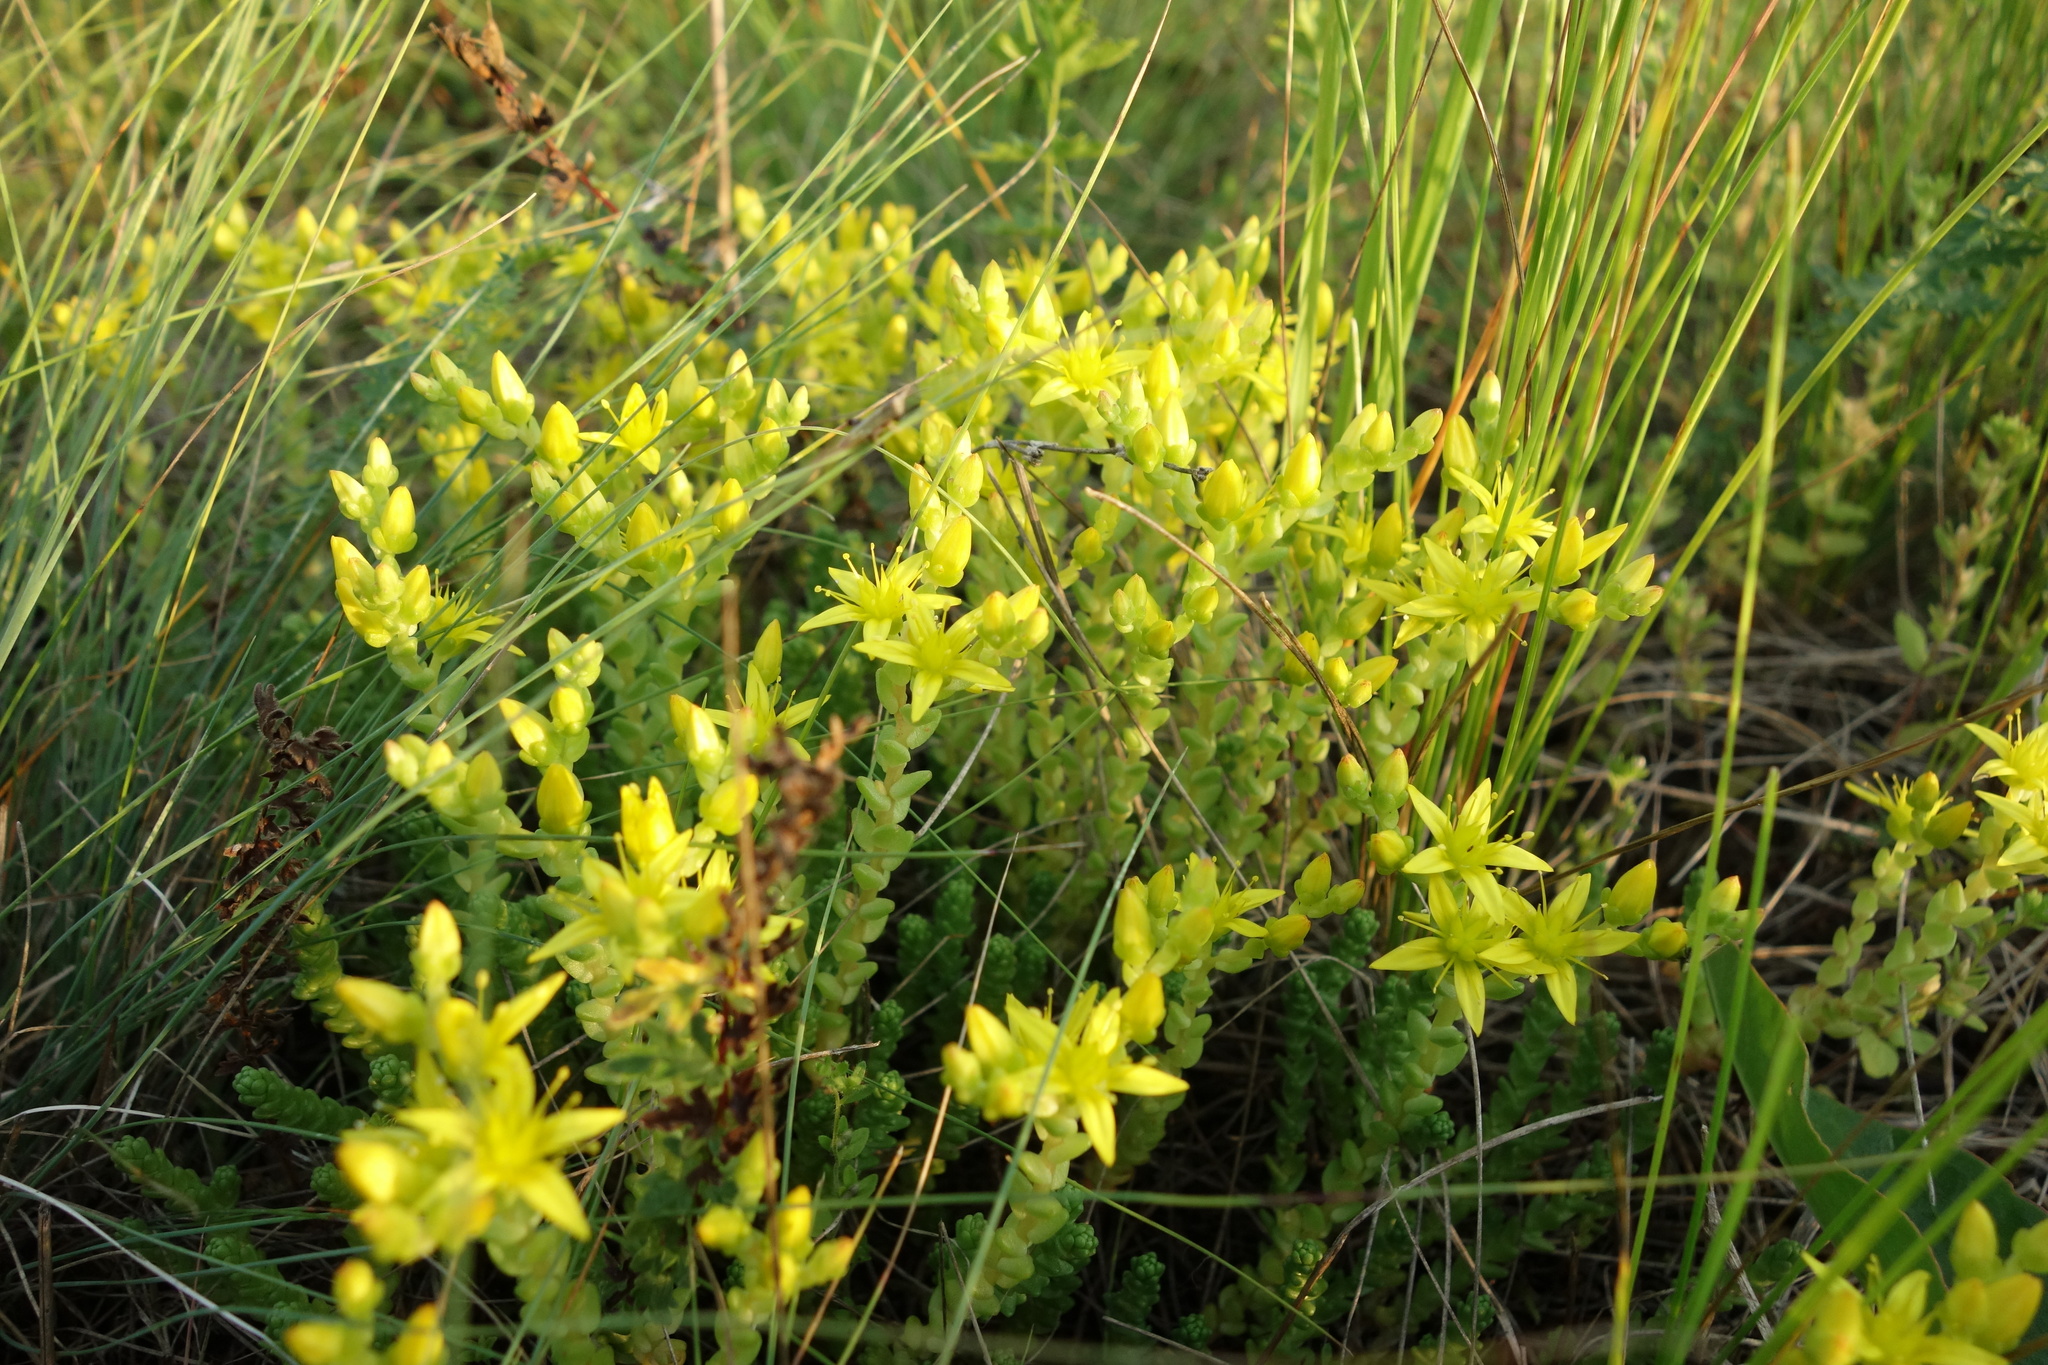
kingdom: Plantae
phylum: Tracheophyta
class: Magnoliopsida
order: Saxifragales
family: Crassulaceae
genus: Sedum
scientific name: Sedum acre
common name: Biting stonecrop
